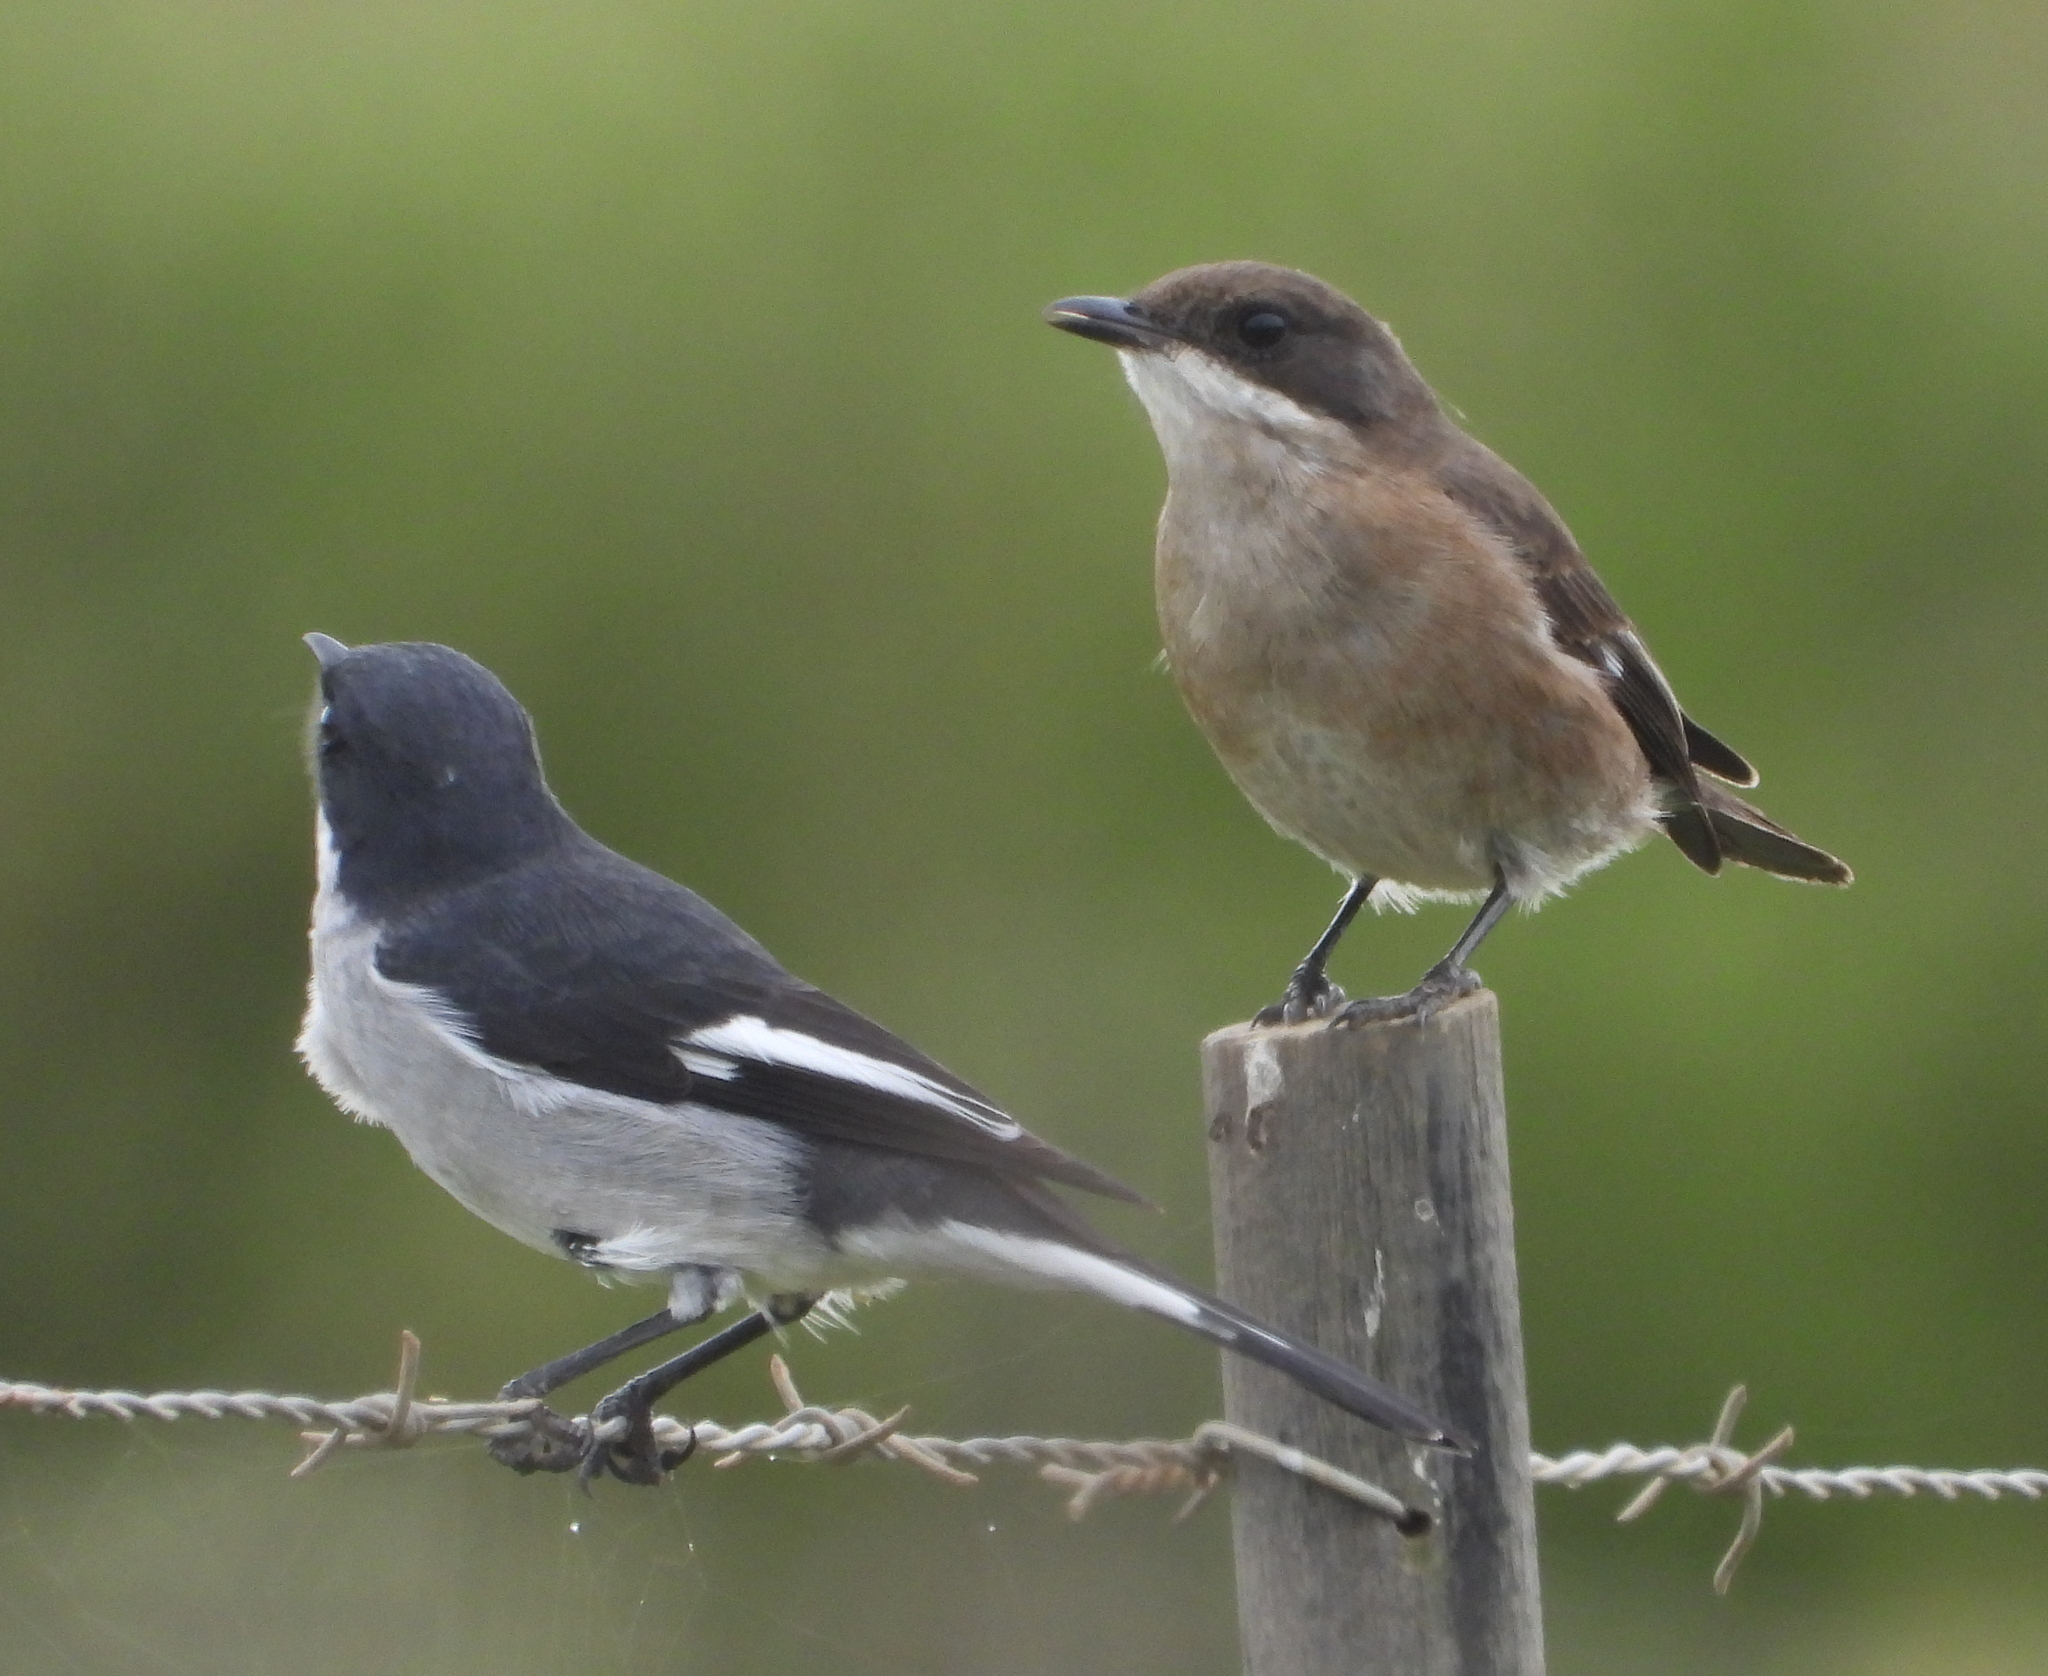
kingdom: Animalia
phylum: Chordata
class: Aves
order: Passeriformes
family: Muscicapidae
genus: Sigelus
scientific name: Sigelus silens
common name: Fiscal flycatcher
